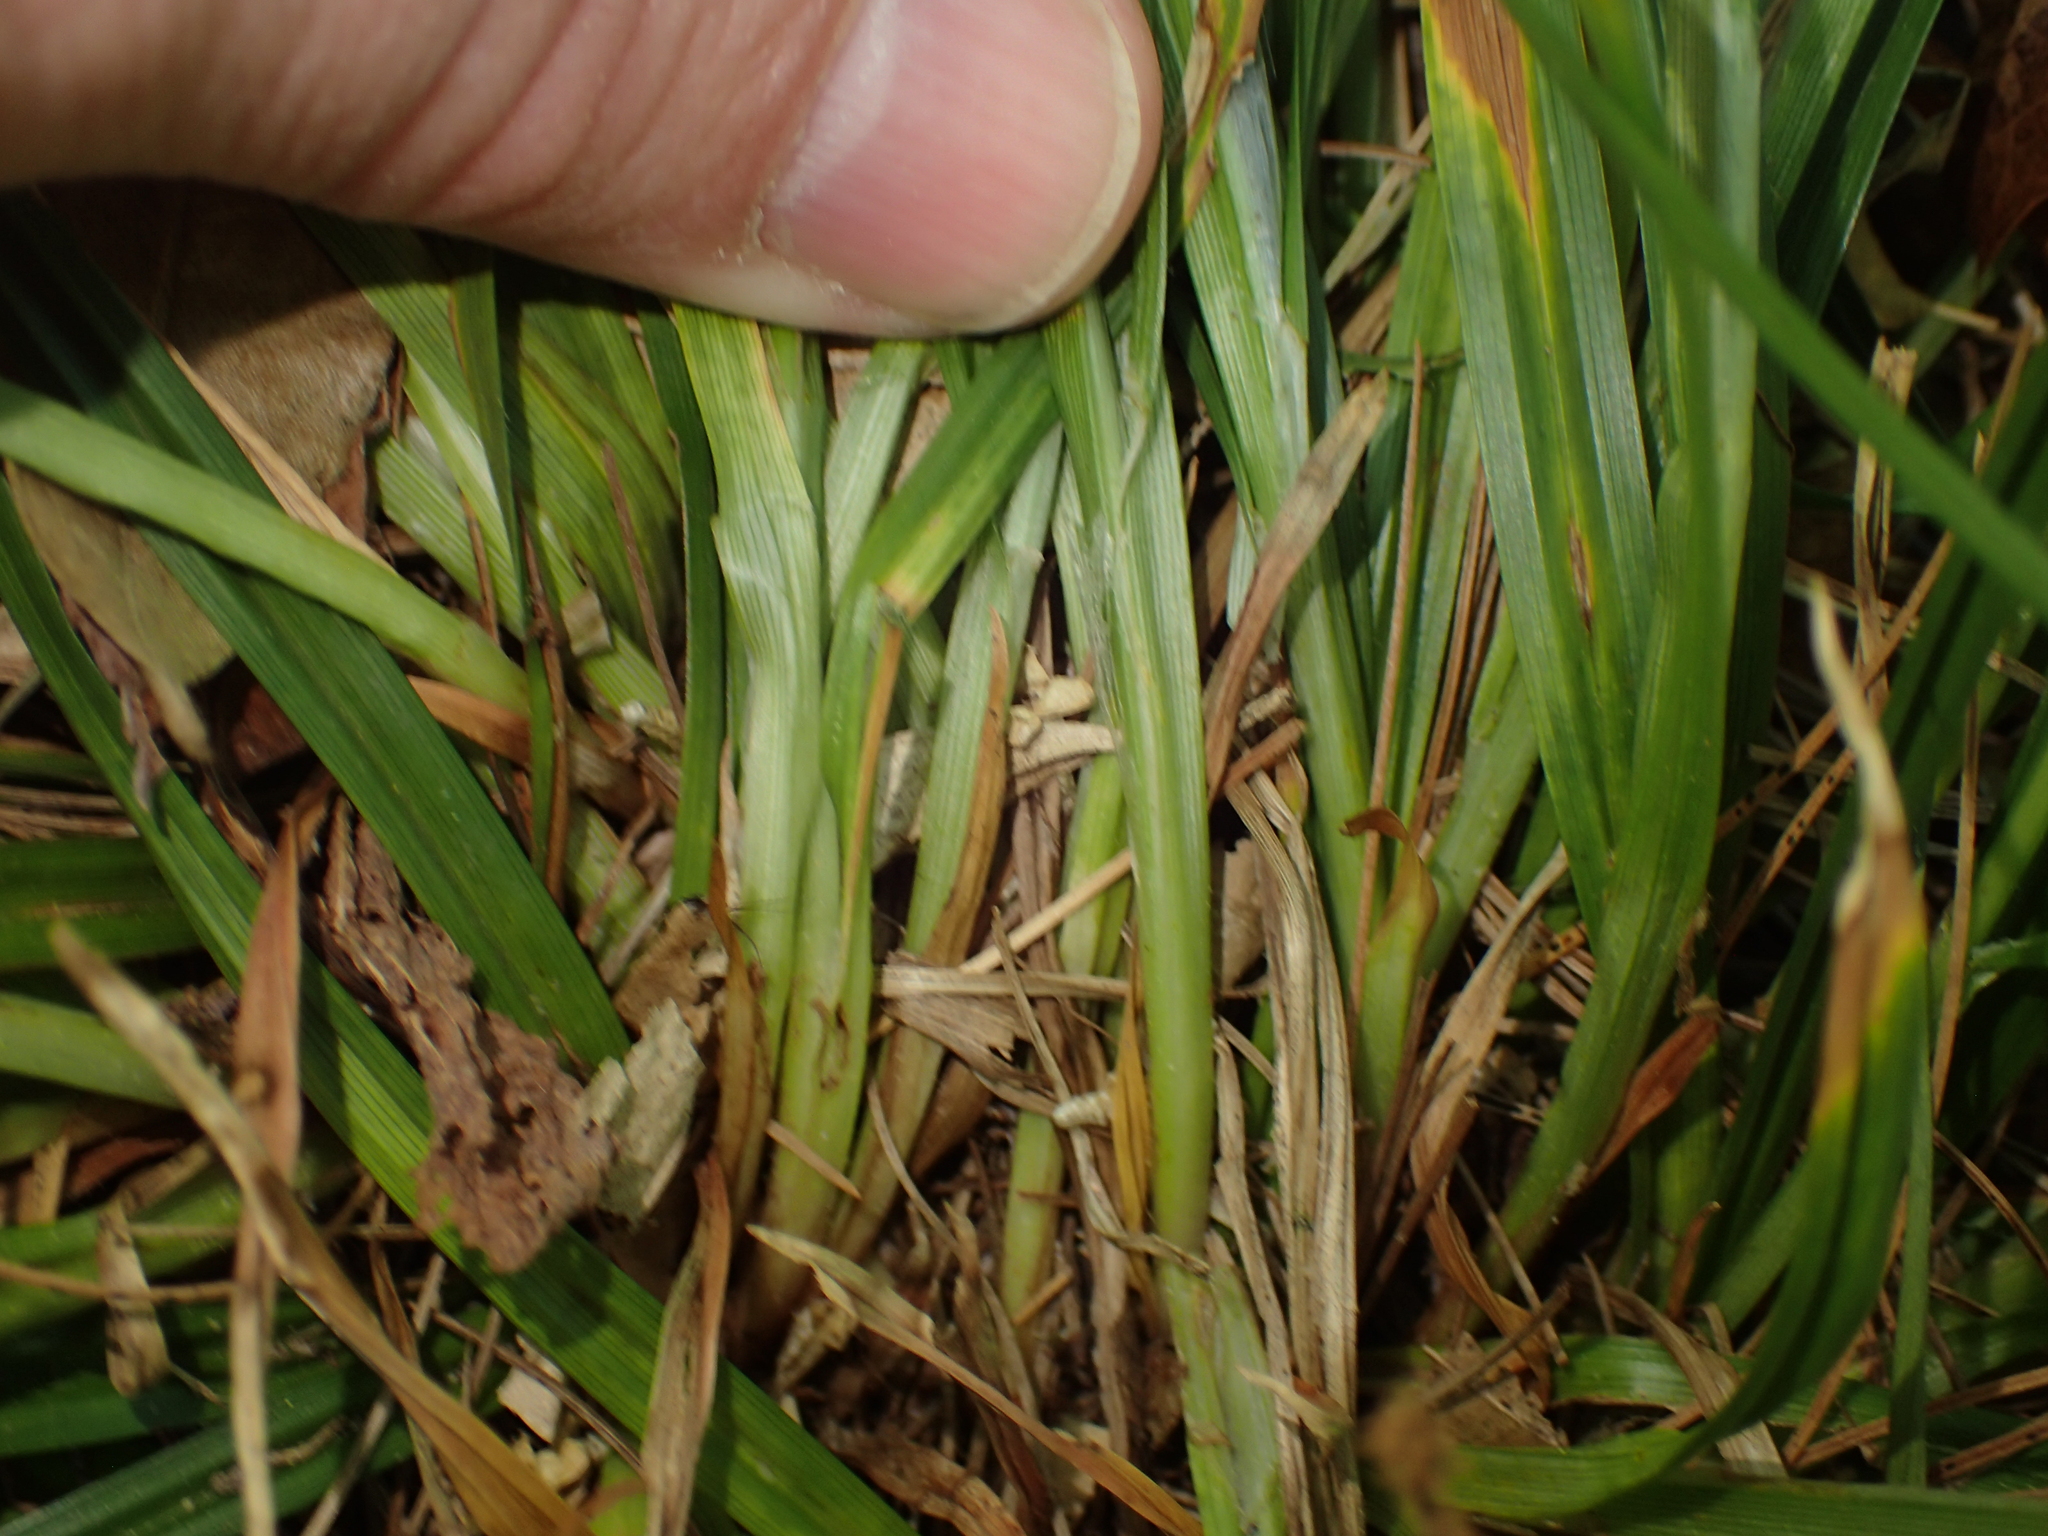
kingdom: Plantae
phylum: Tracheophyta
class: Liliopsida
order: Poales
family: Cyperaceae
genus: Carex
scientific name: Carex amphibola
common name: Amphibious sedge
